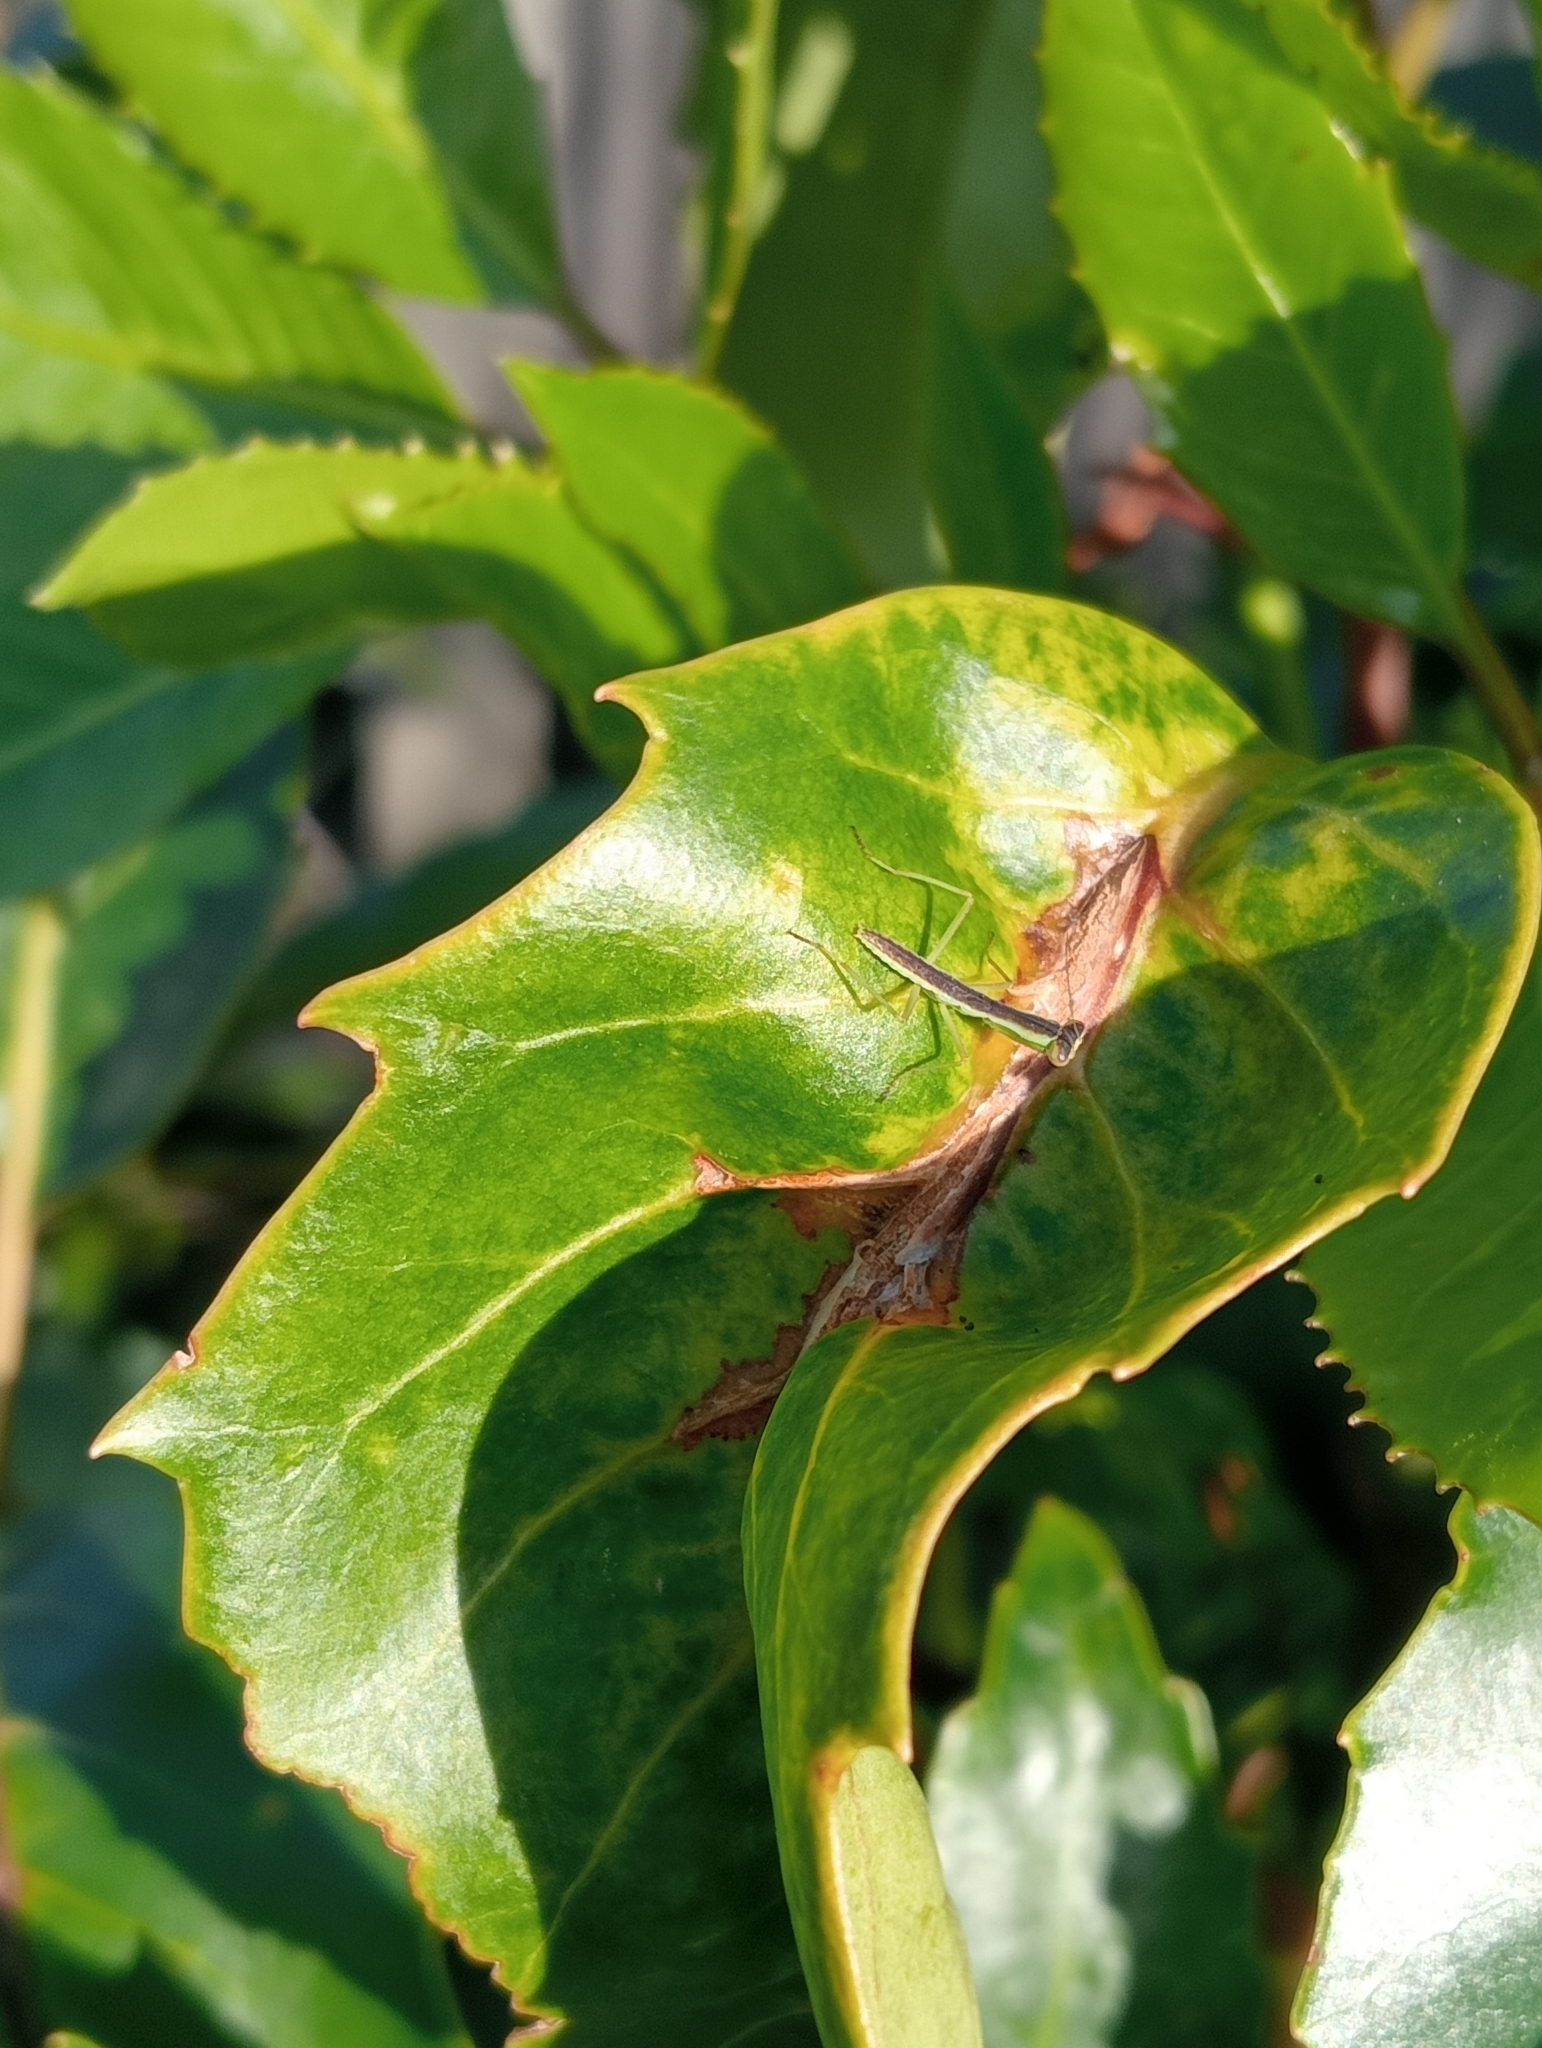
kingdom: Animalia
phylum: Arthropoda
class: Insecta
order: Mantodea
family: Mantidae
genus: Orthodera
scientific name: Orthodera novaezealandiae
